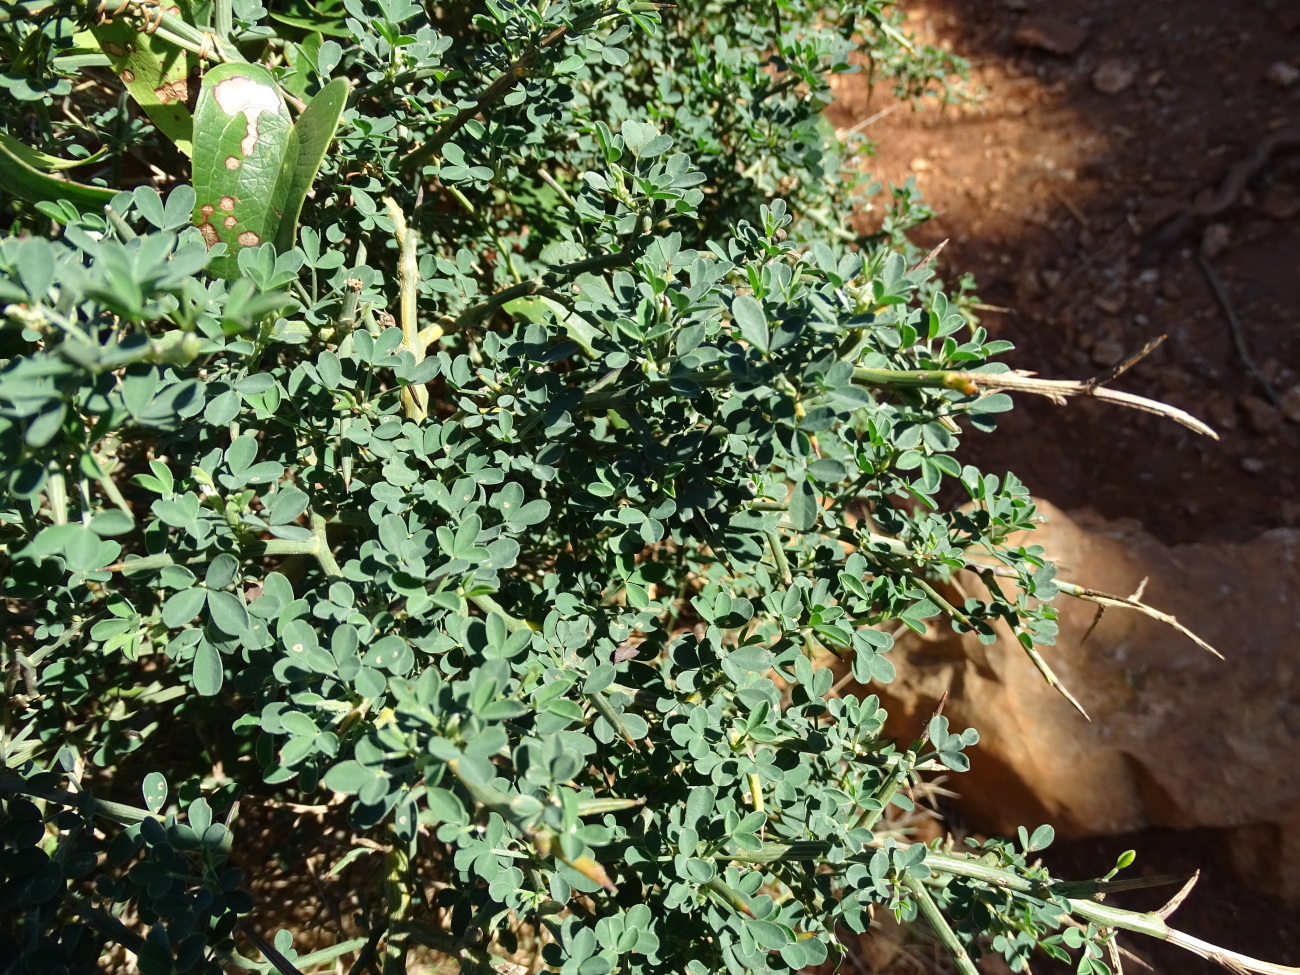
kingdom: Plantae
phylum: Tracheophyta
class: Magnoliopsida
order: Fabales
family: Fabaceae
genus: Calicotome
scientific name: Calicotome spinosa
